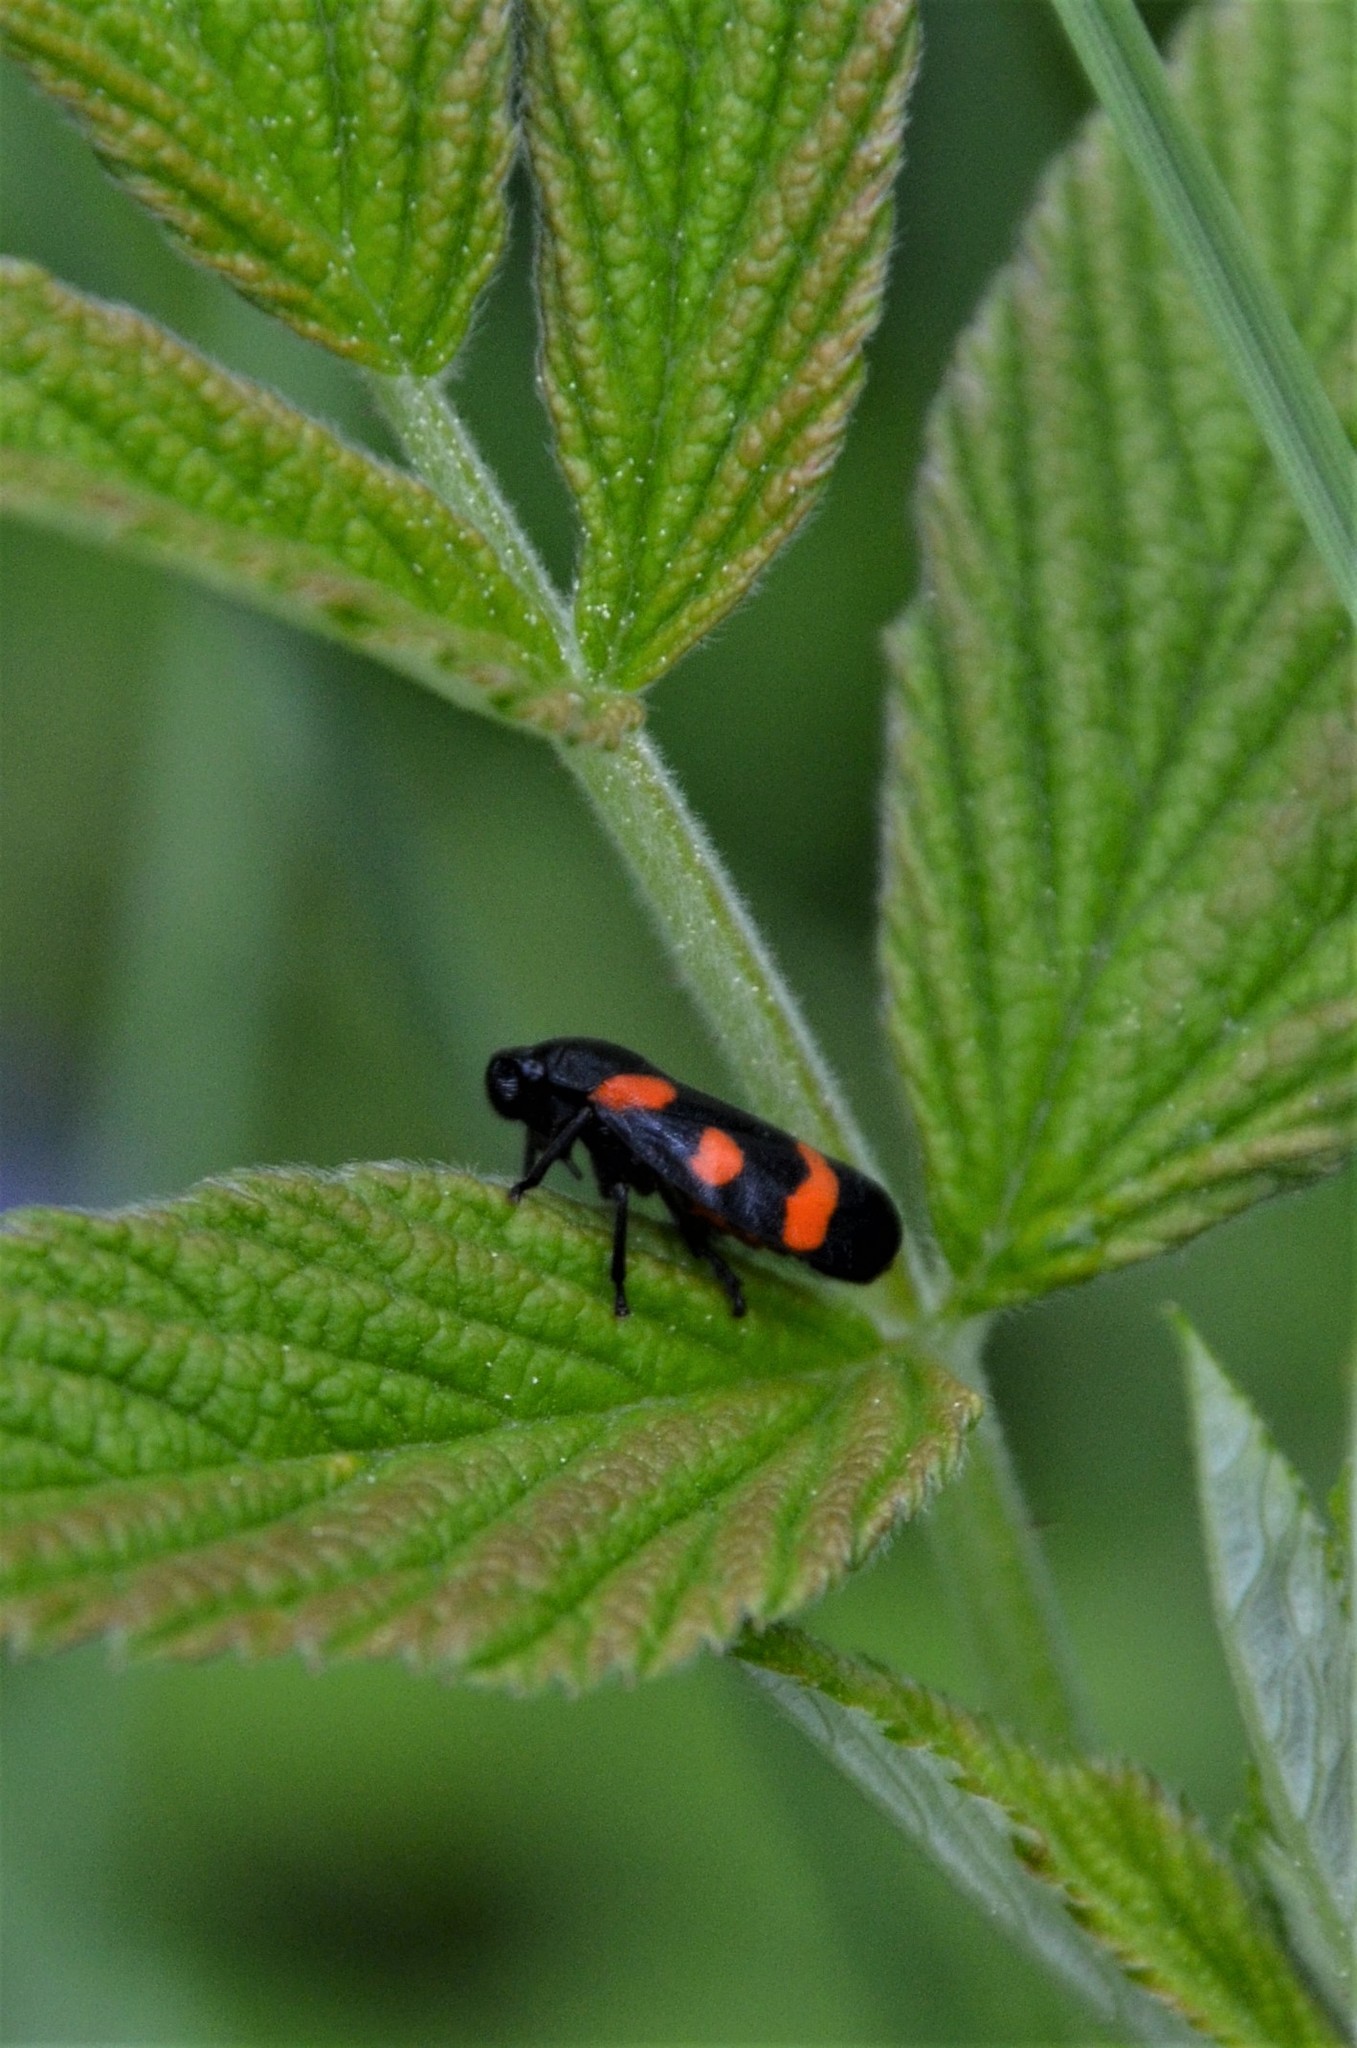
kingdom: Animalia
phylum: Arthropoda
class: Insecta
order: Hemiptera
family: Cercopidae
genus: Cercopis
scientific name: Cercopis sanguinolenta
